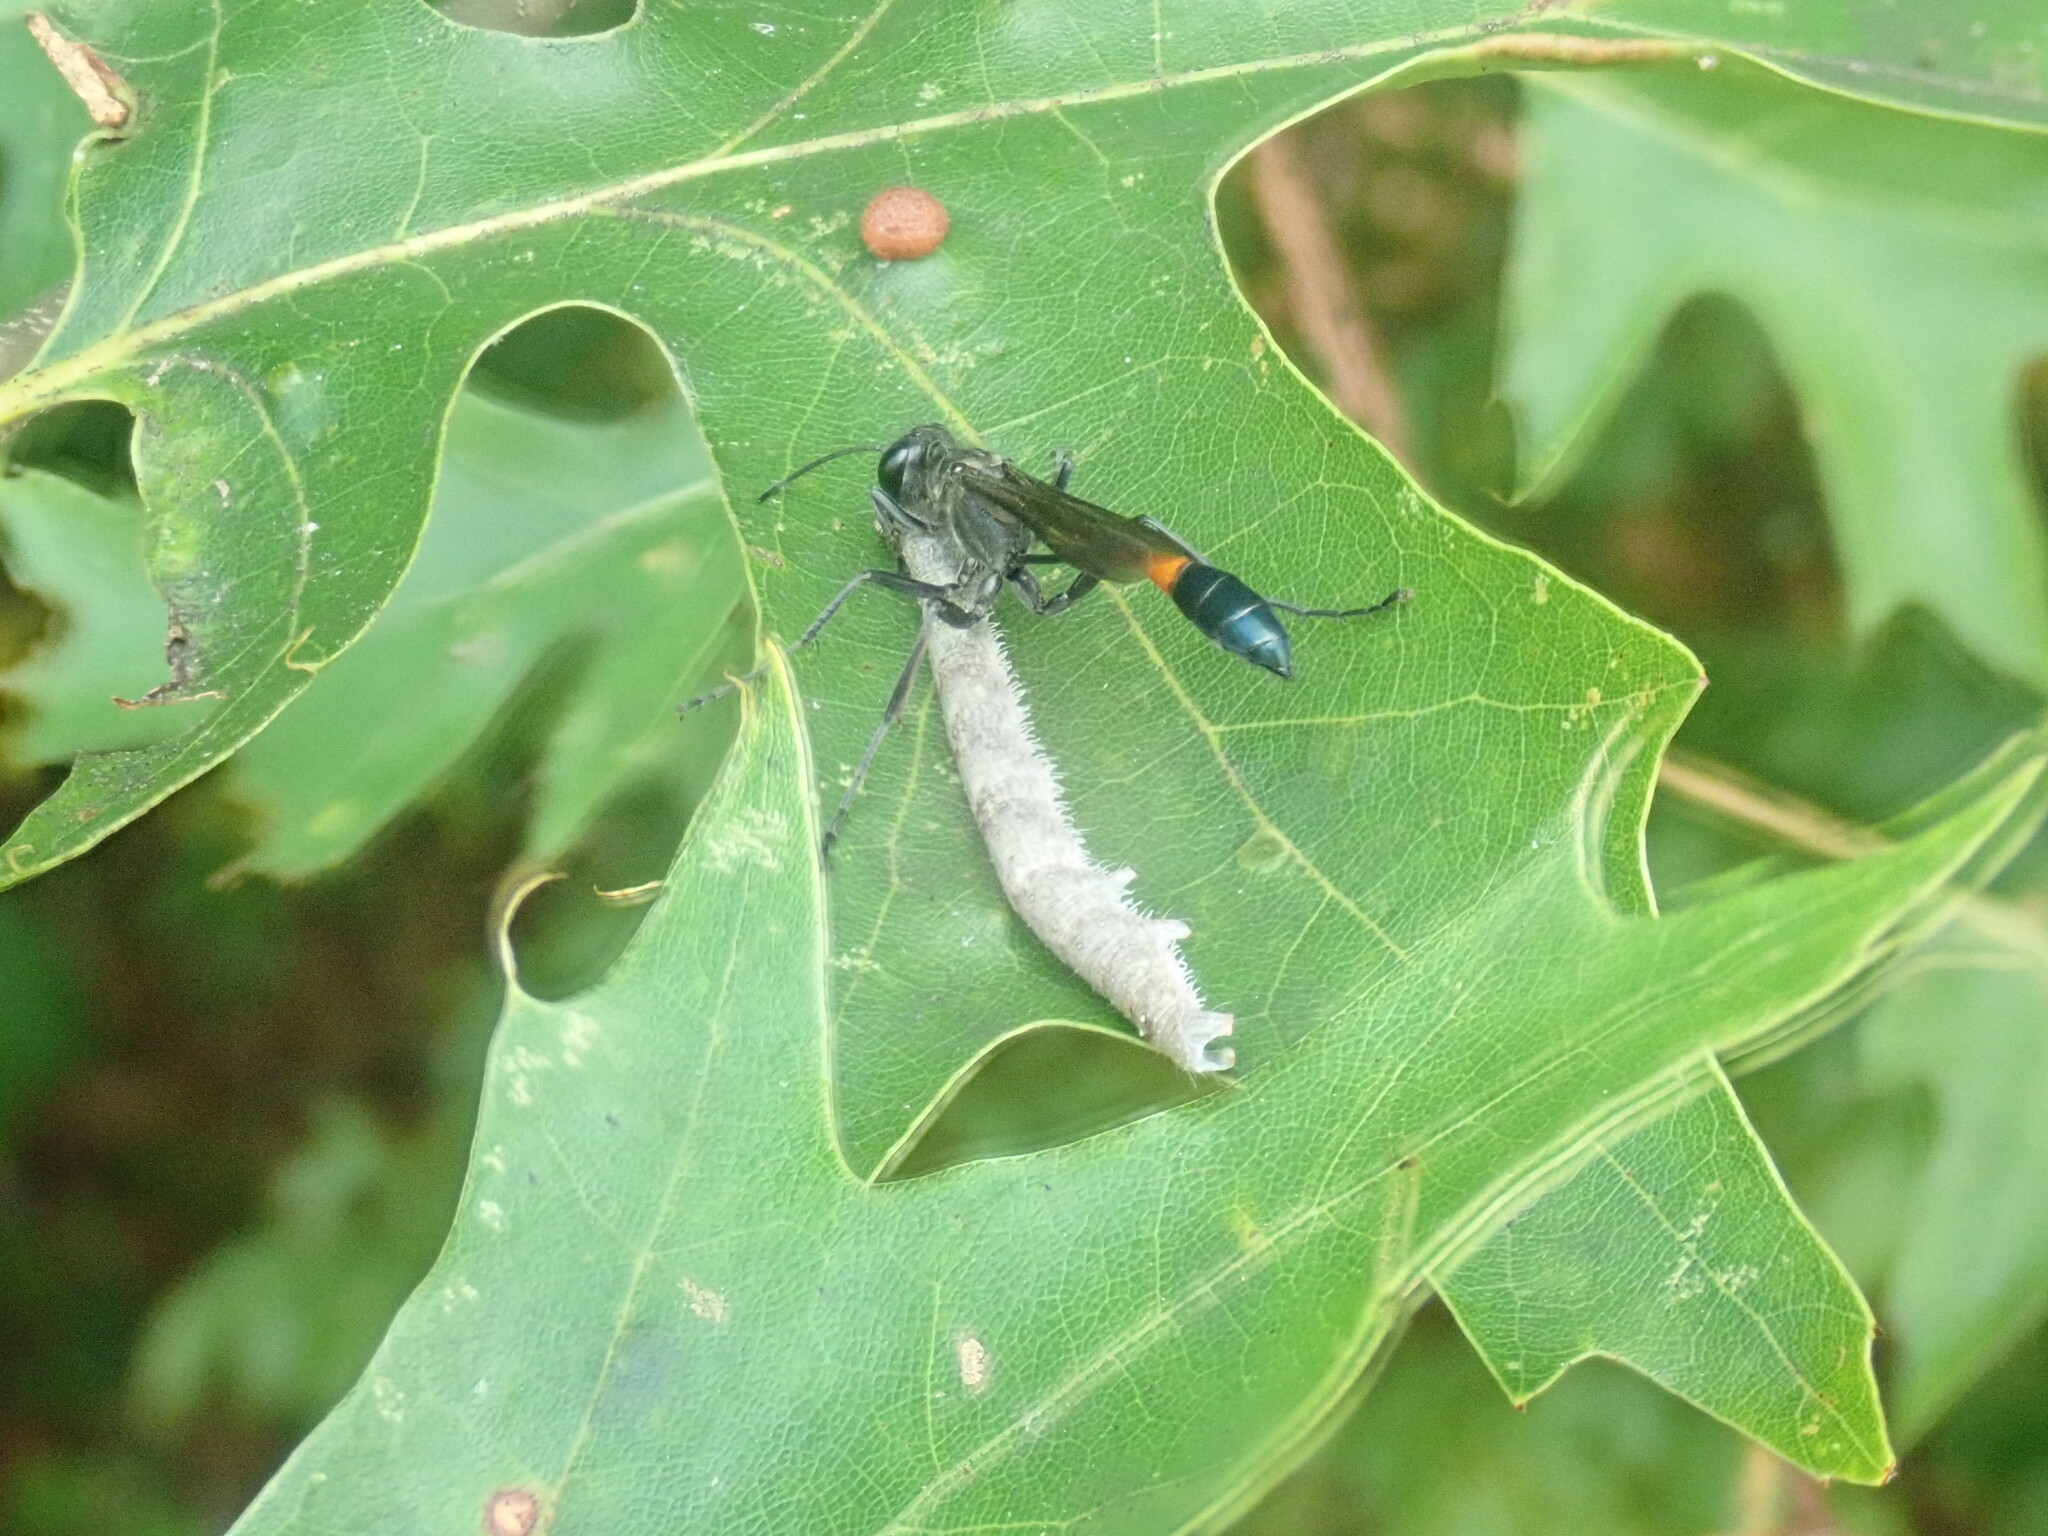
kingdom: Animalia
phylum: Arthropoda
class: Insecta
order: Lepidoptera
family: Geometridae
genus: Campaea
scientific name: Campaea perlata
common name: Fringed looper
